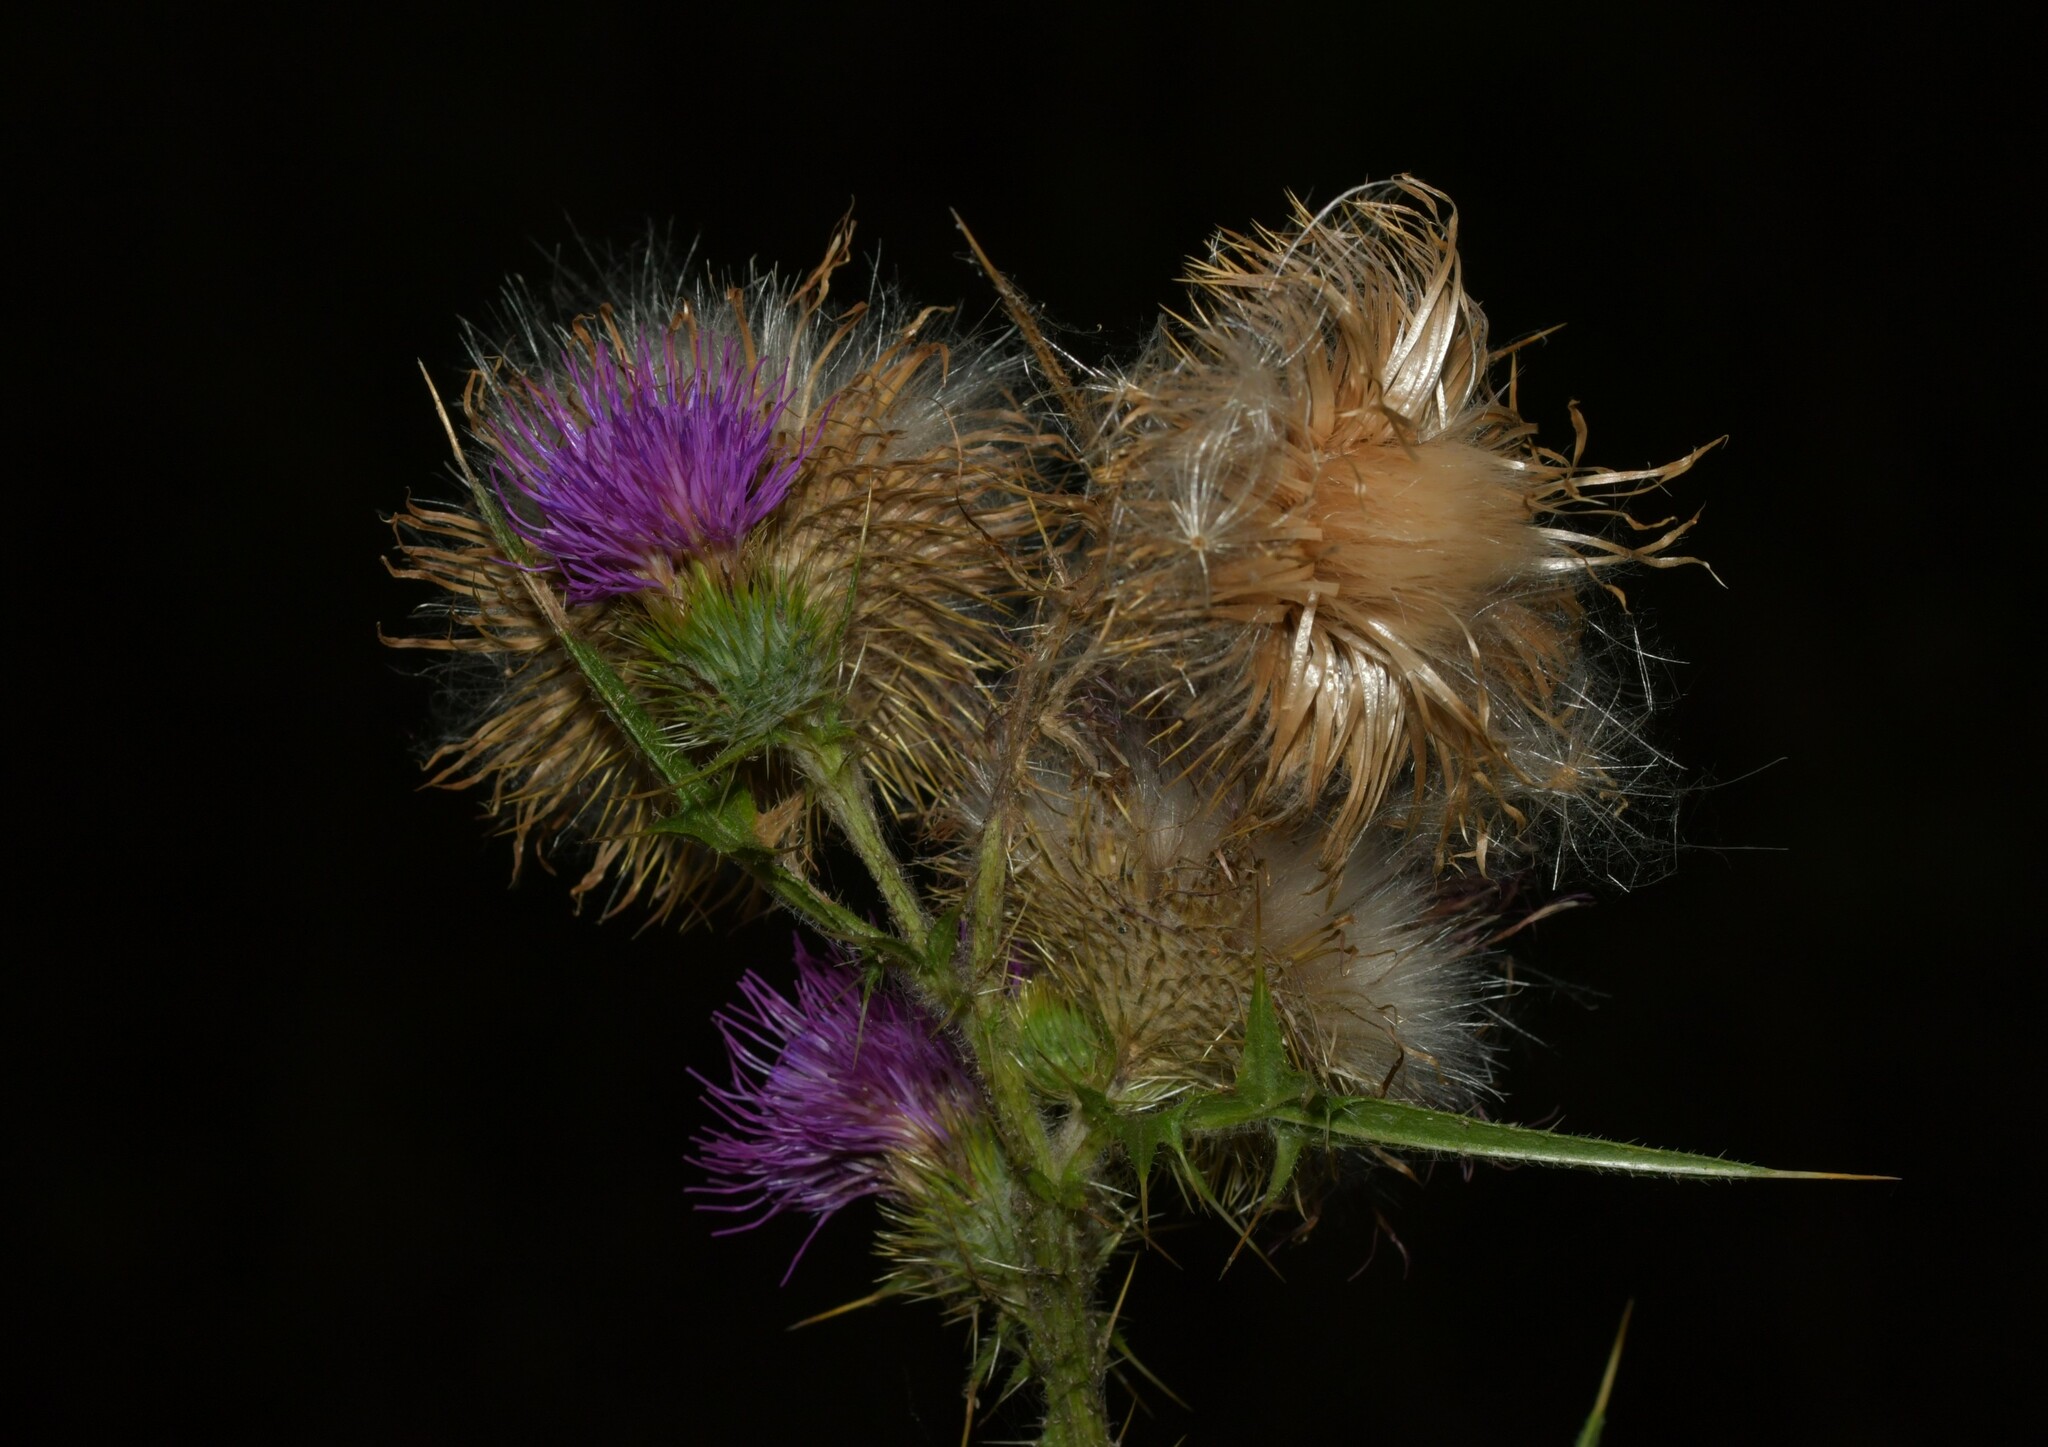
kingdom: Plantae
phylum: Tracheophyta
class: Magnoliopsida
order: Asterales
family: Asteraceae
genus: Cirsium
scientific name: Cirsium vulgare
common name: Bull thistle
